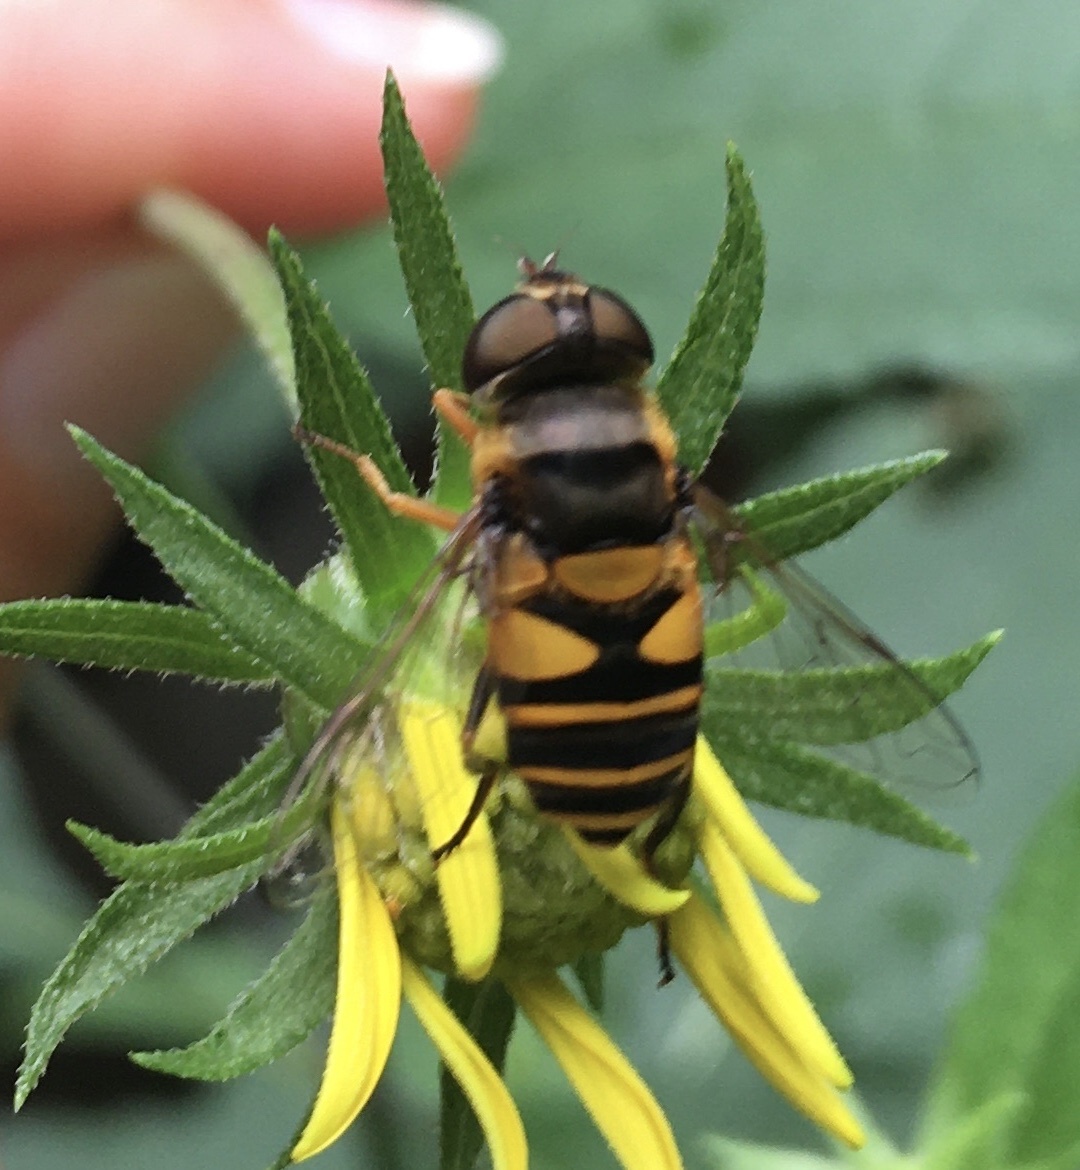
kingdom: Animalia
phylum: Arthropoda
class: Insecta
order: Diptera
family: Syrphidae
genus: Eristalis
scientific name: Eristalis transversa
